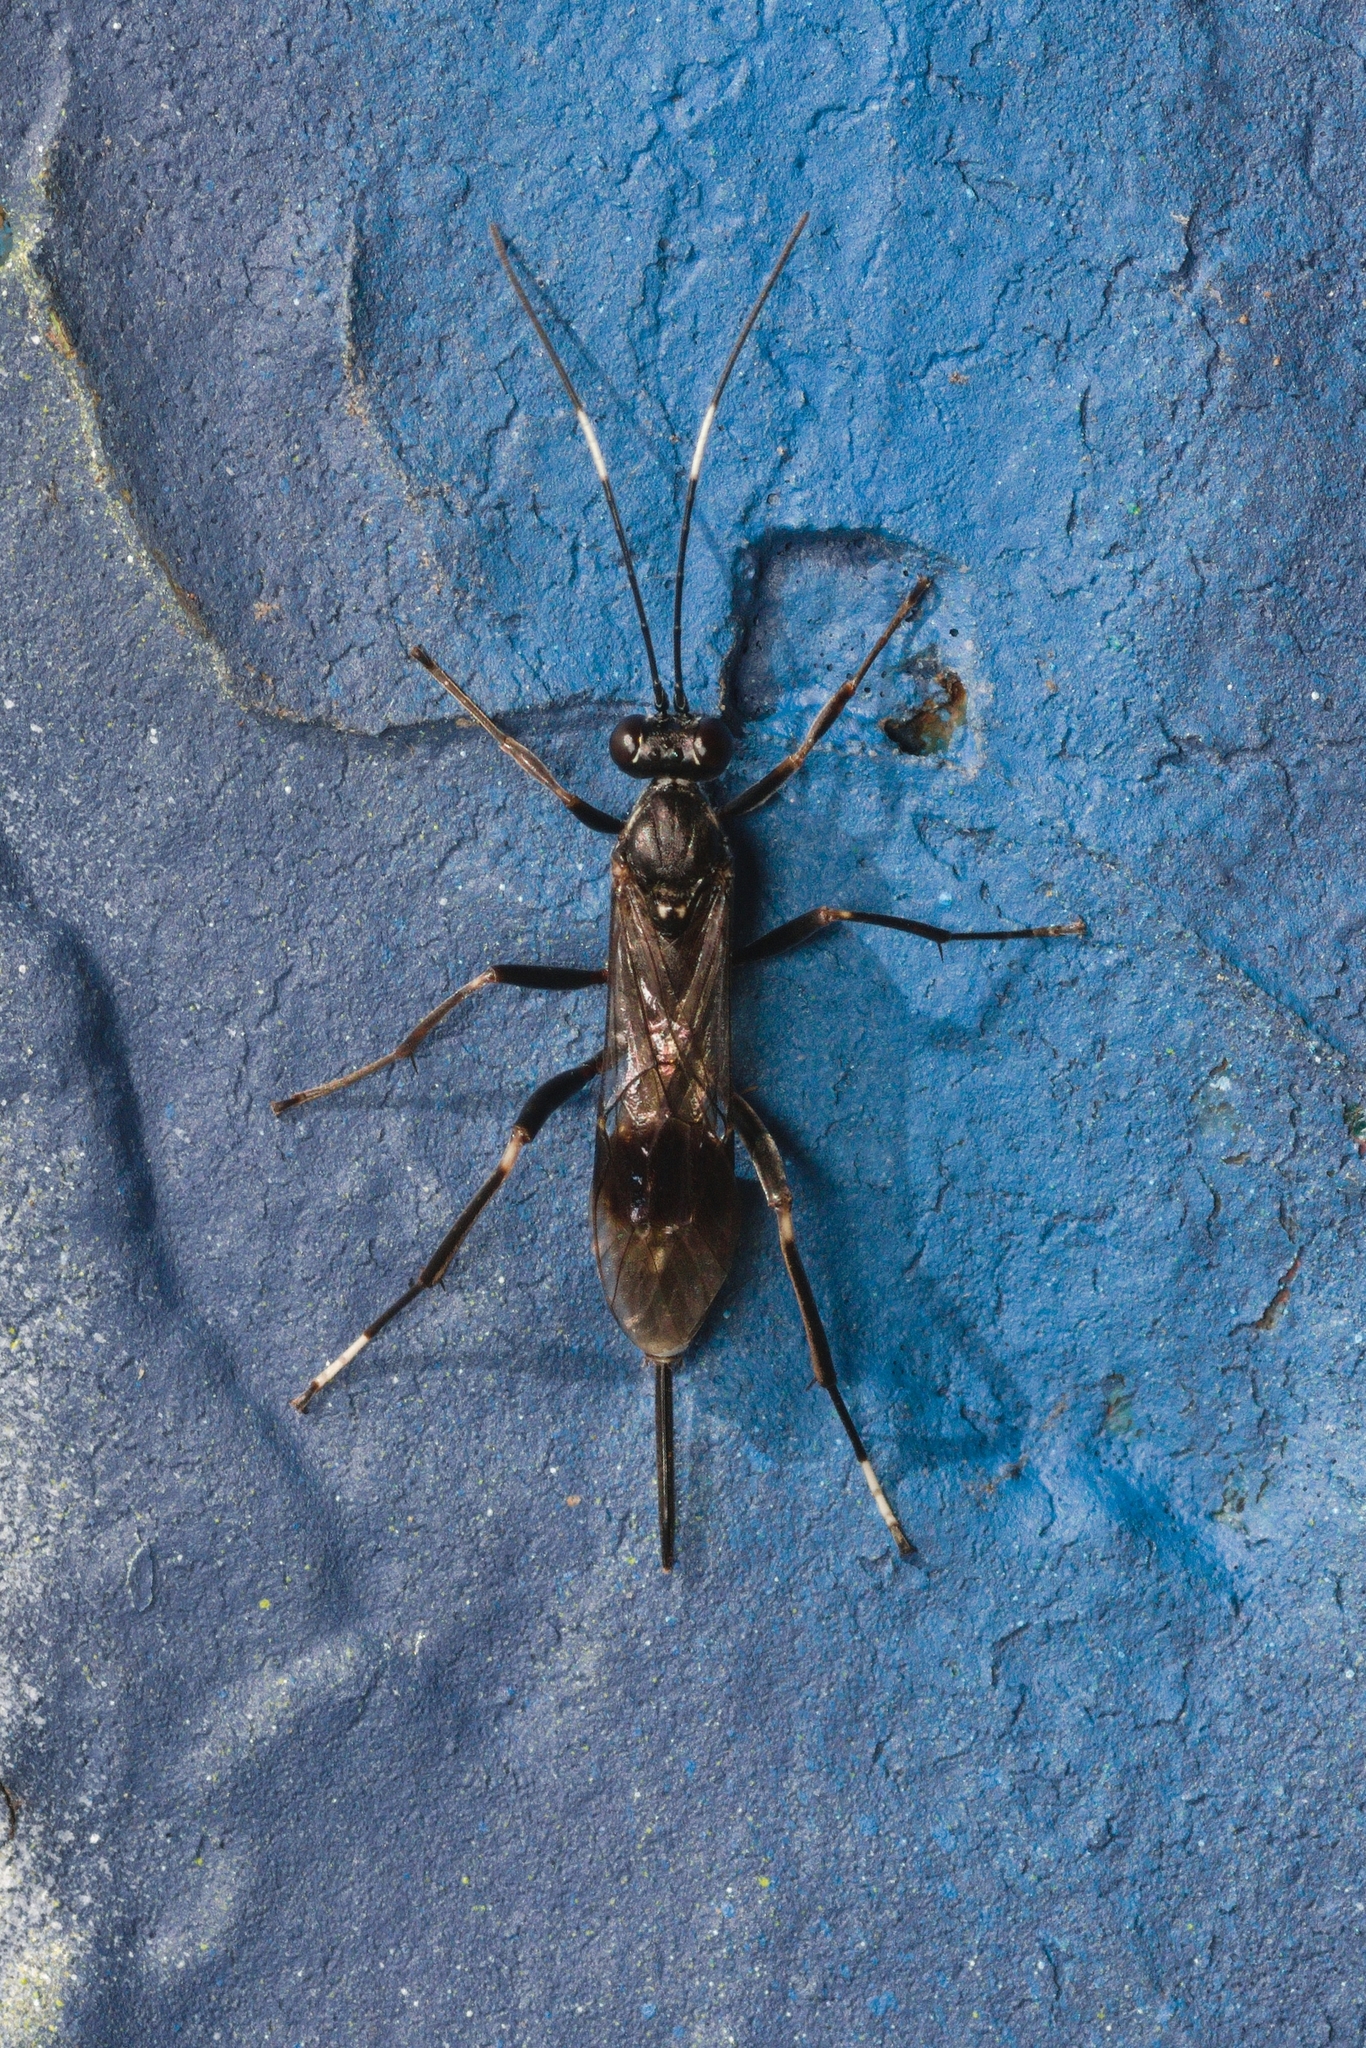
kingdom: Animalia
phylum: Arthropoda
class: Insecta
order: Hymenoptera
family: Ichneumonidae
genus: Nippocryptus
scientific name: Nippocryptus vittatorius
